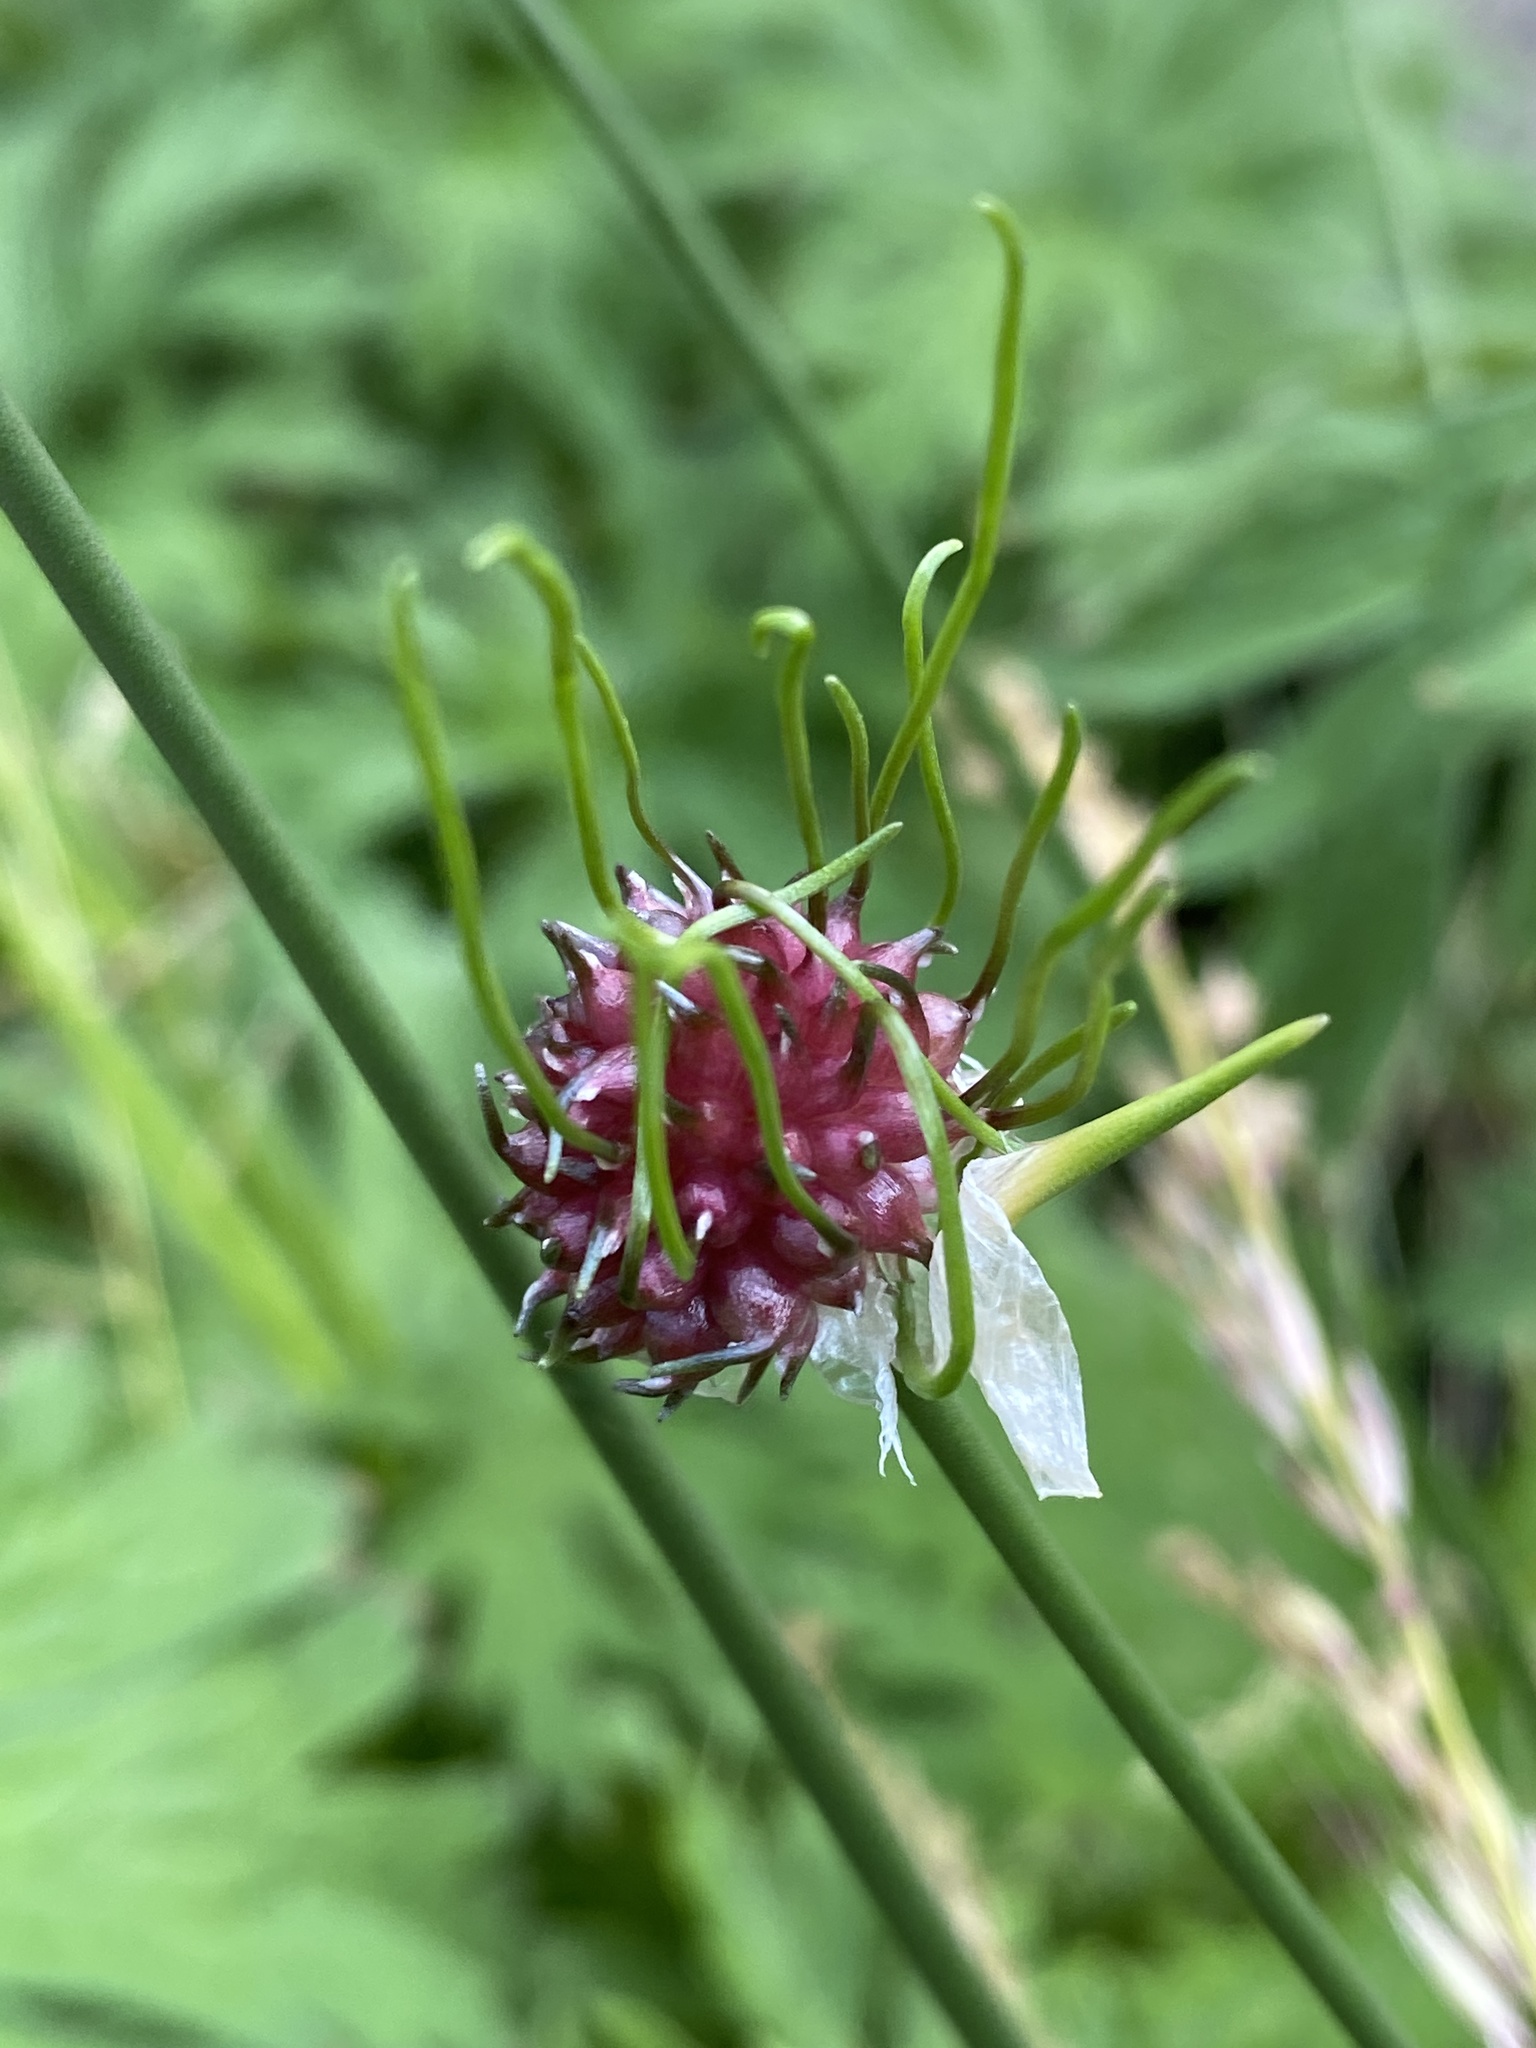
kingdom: Plantae
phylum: Tracheophyta
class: Liliopsida
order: Asparagales
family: Amaryllidaceae
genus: Allium
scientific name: Allium vineale
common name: Crow garlic
